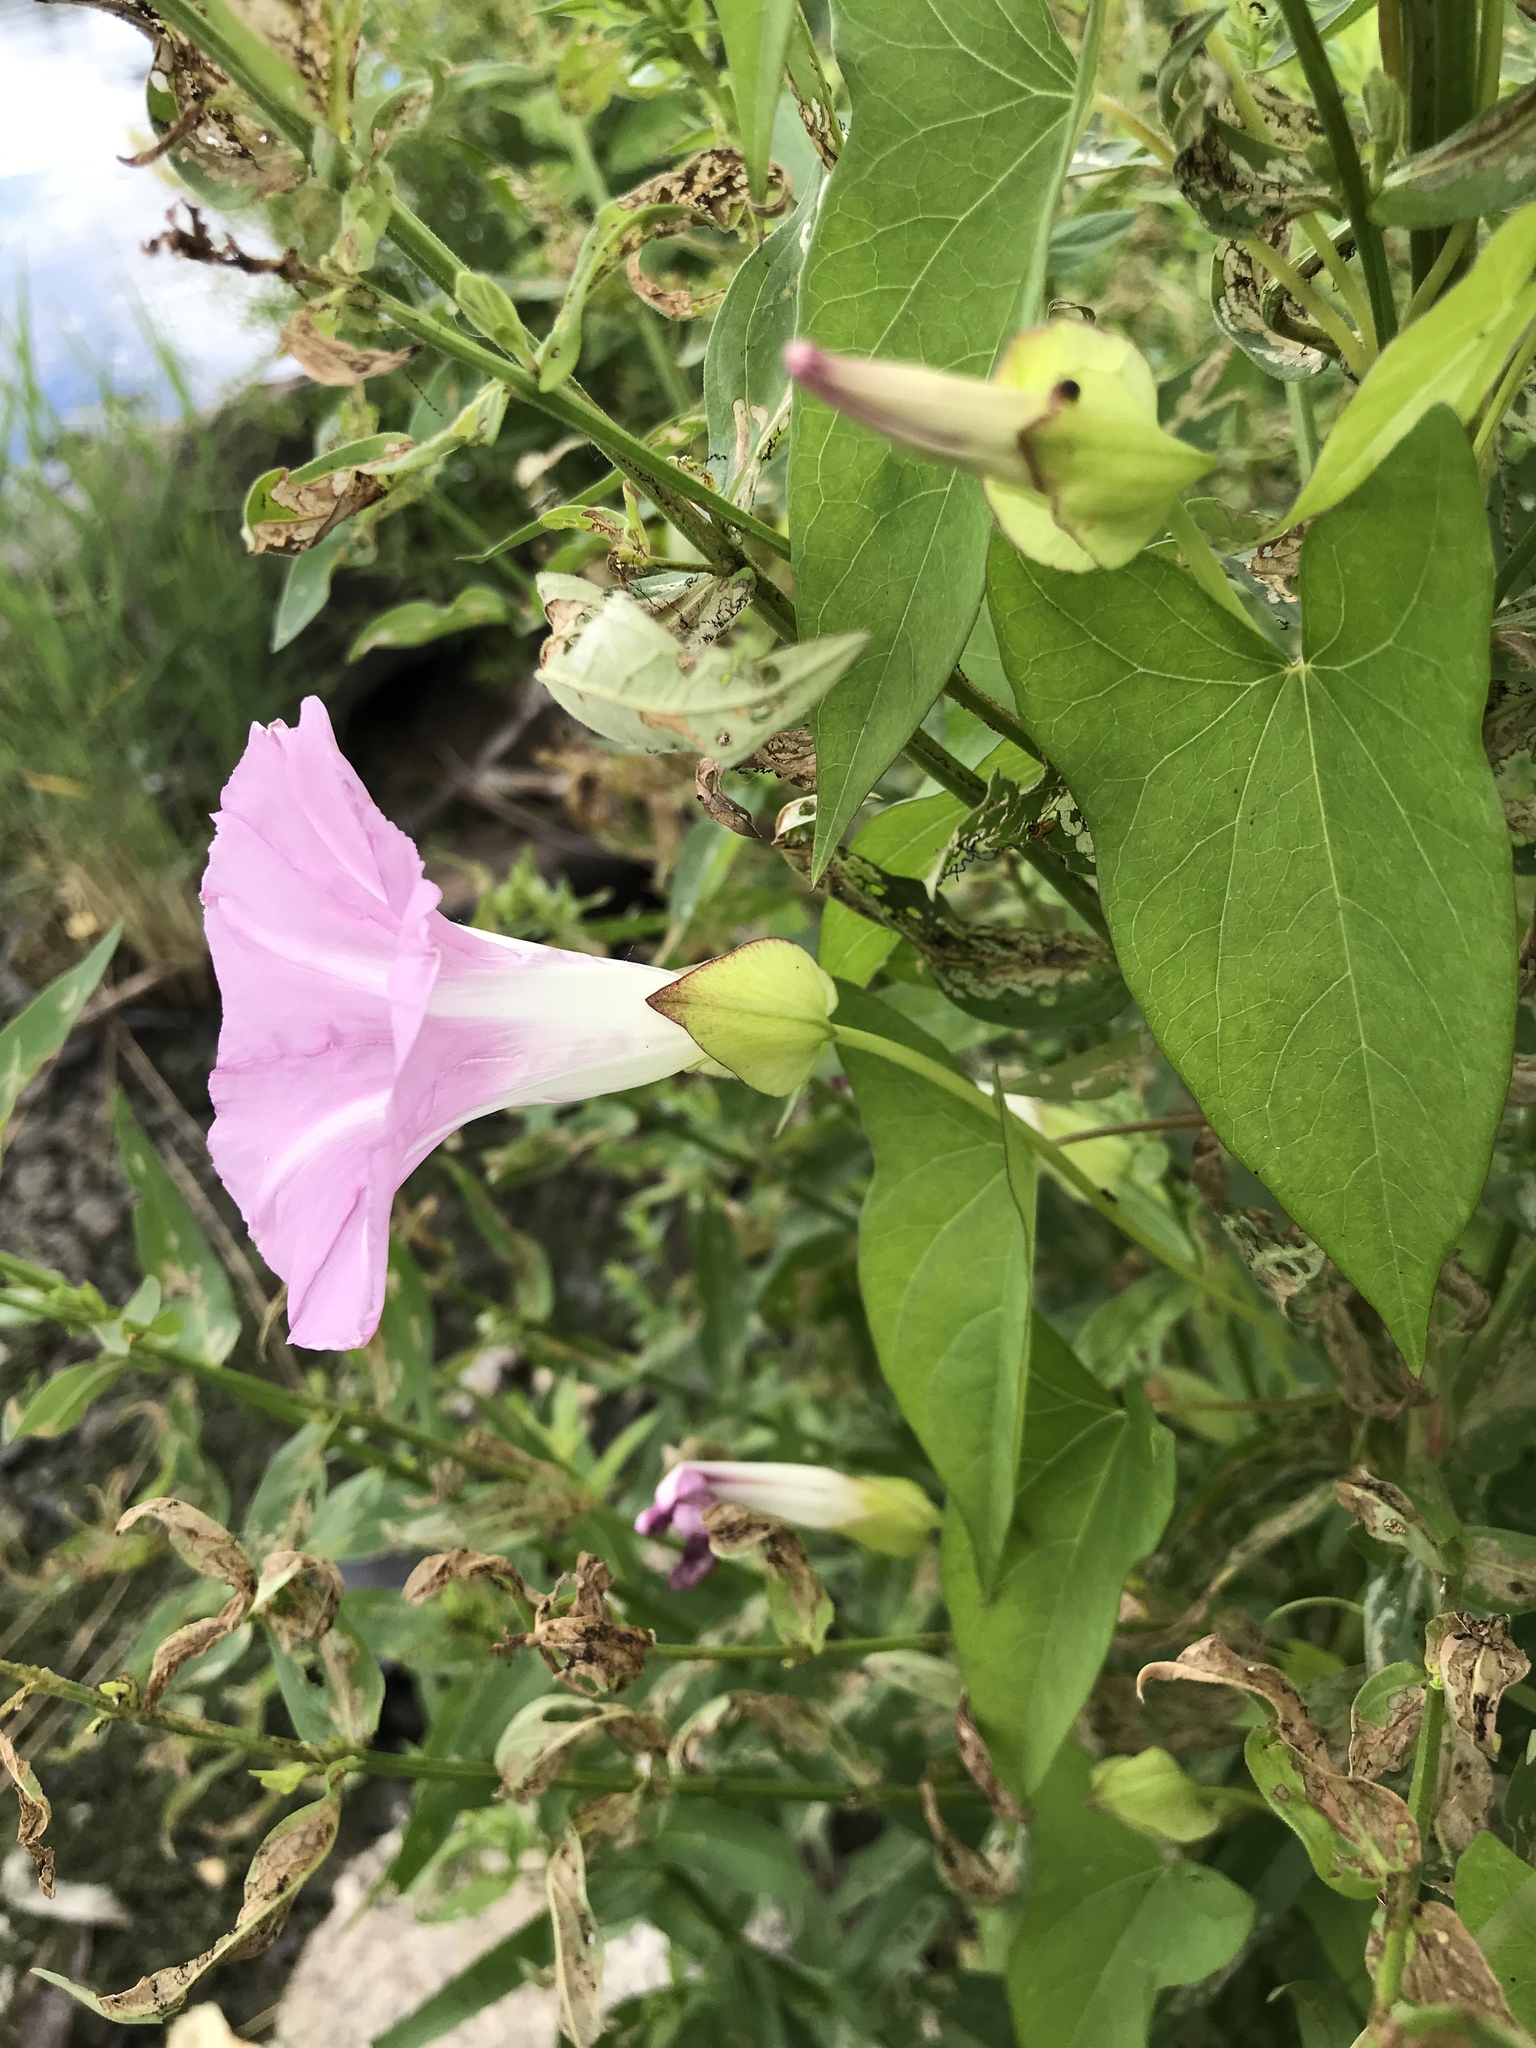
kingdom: Plantae
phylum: Tracheophyta
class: Magnoliopsida
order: Solanales
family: Convolvulaceae
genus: Calystegia
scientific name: Calystegia sepium
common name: Hedge bindweed
